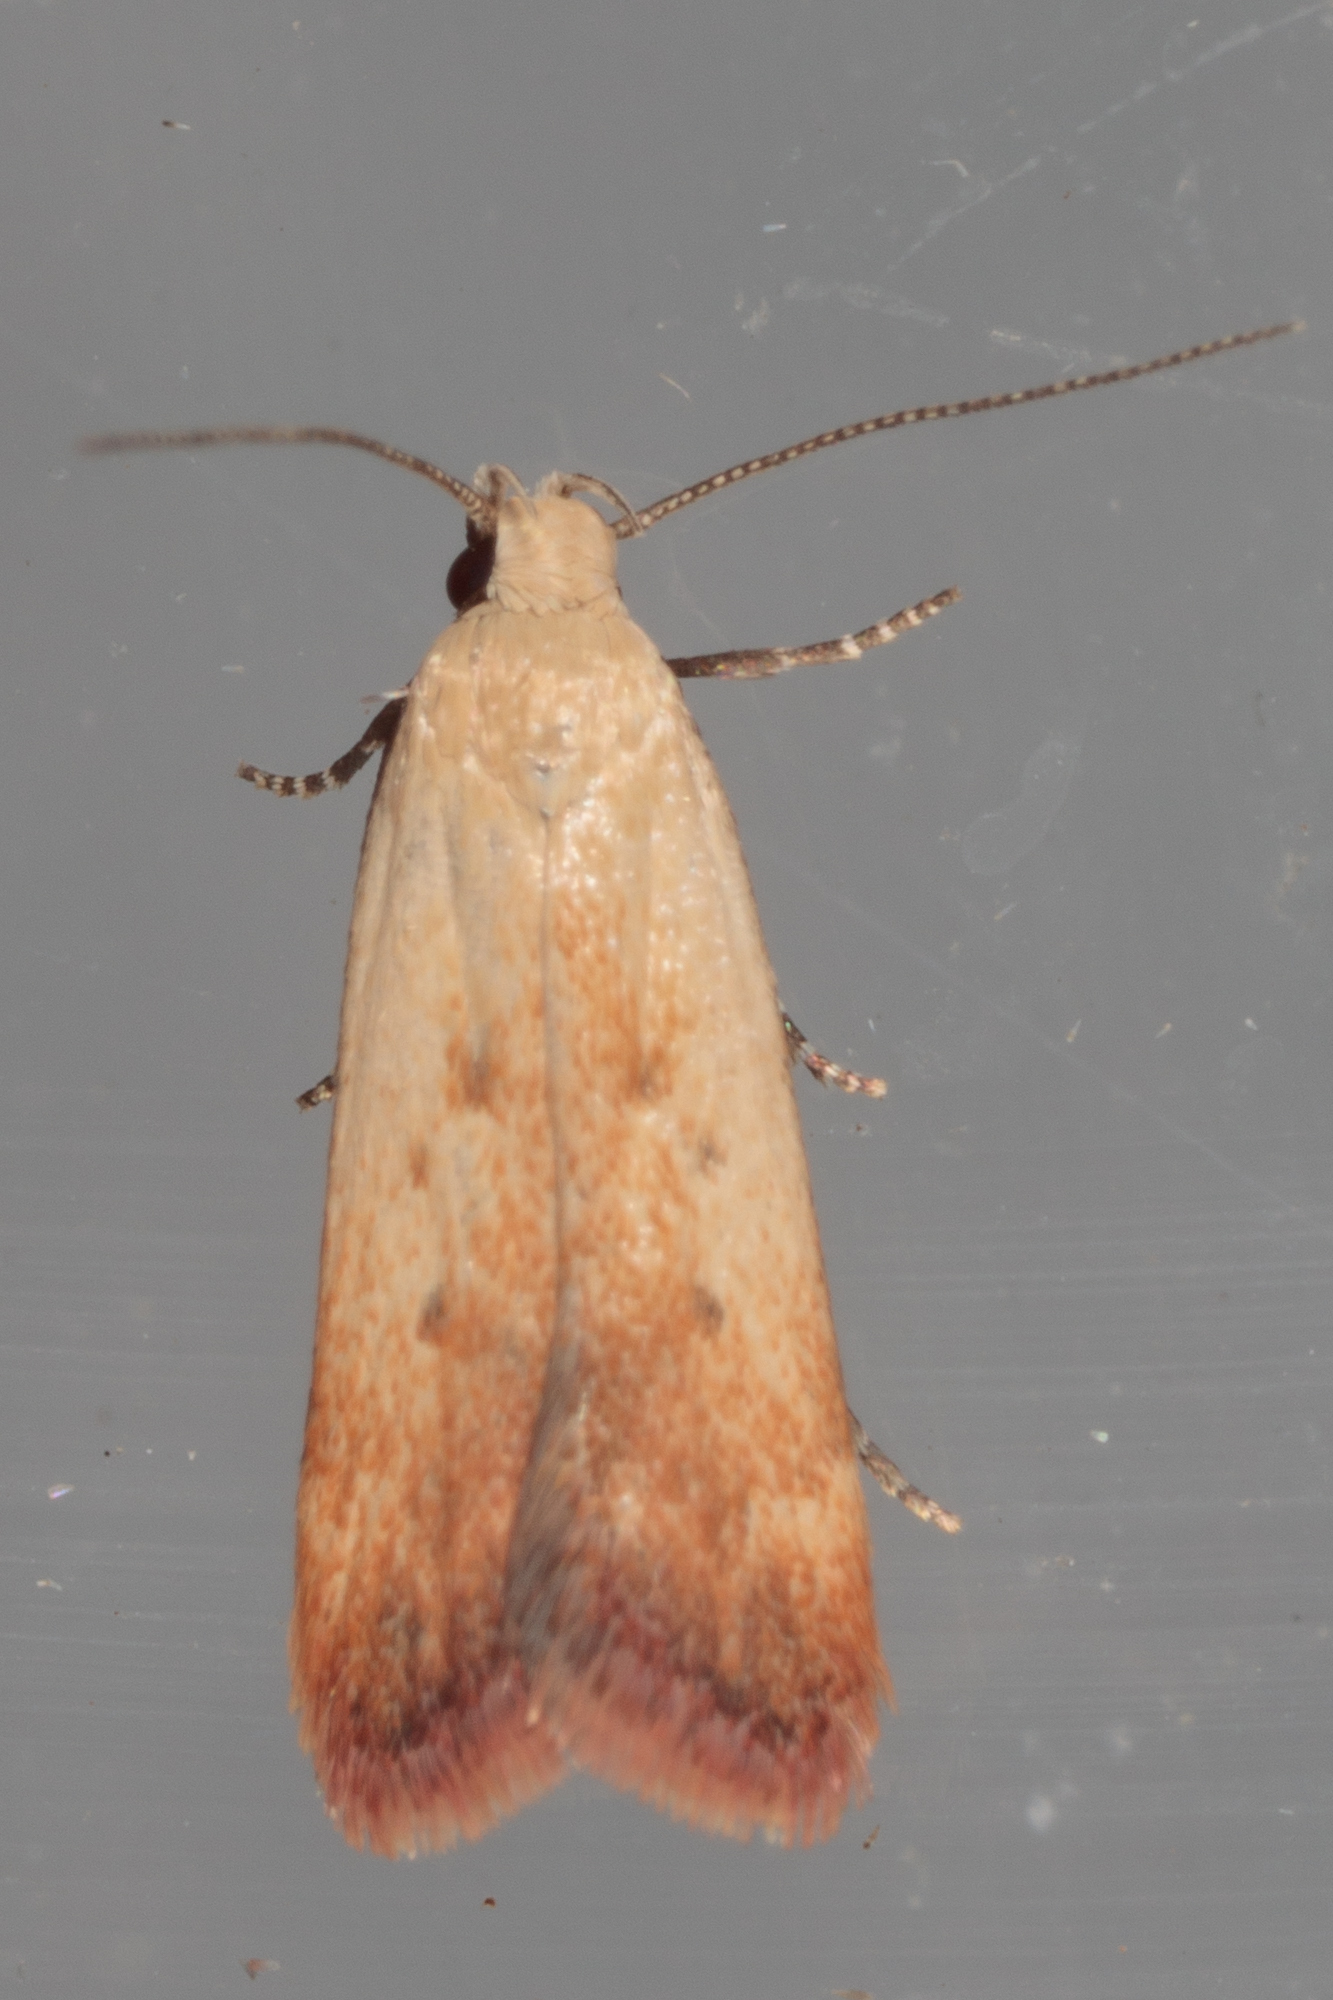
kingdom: Animalia
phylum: Arthropoda
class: Insecta
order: Lepidoptera
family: Gelechiidae
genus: Anacampsis
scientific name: Anacampsis fullonella
